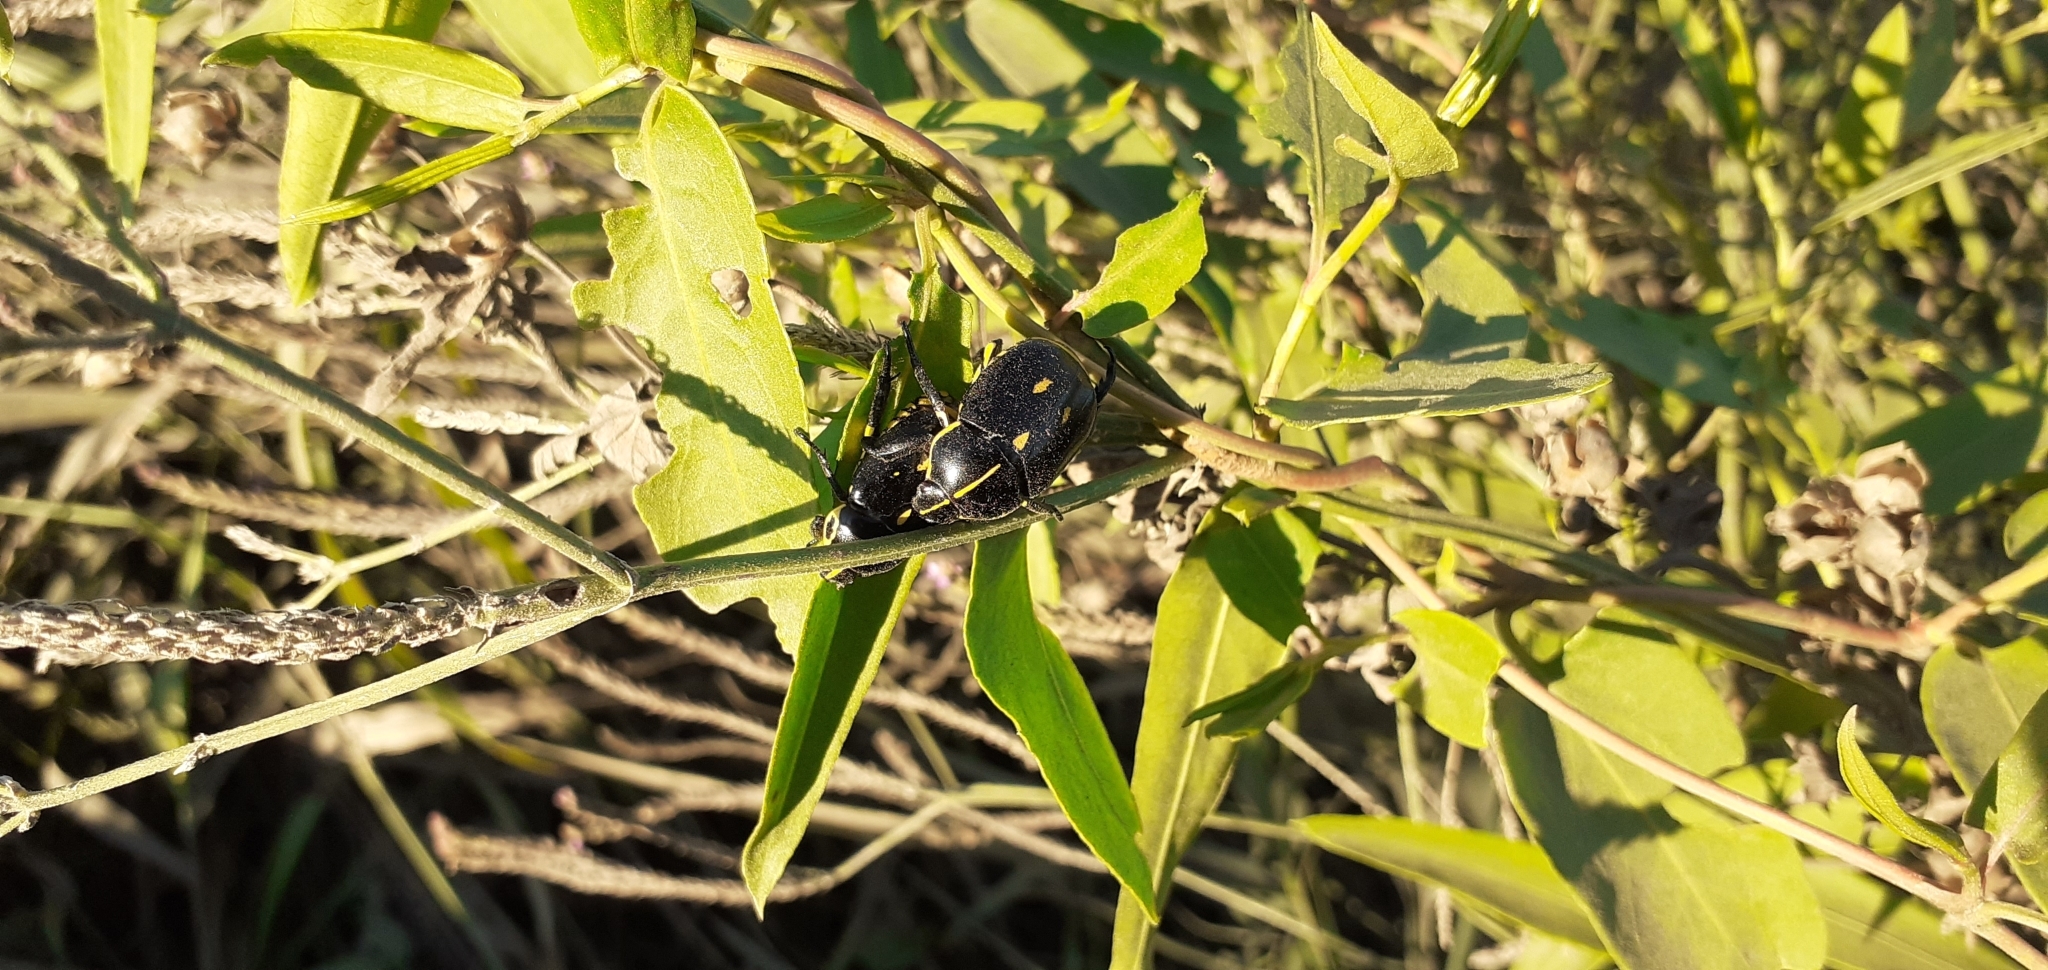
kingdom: Animalia
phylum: Arthropoda
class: Insecta
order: Coleoptera
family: Scarabaeidae
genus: Rutela
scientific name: Rutela lineola
